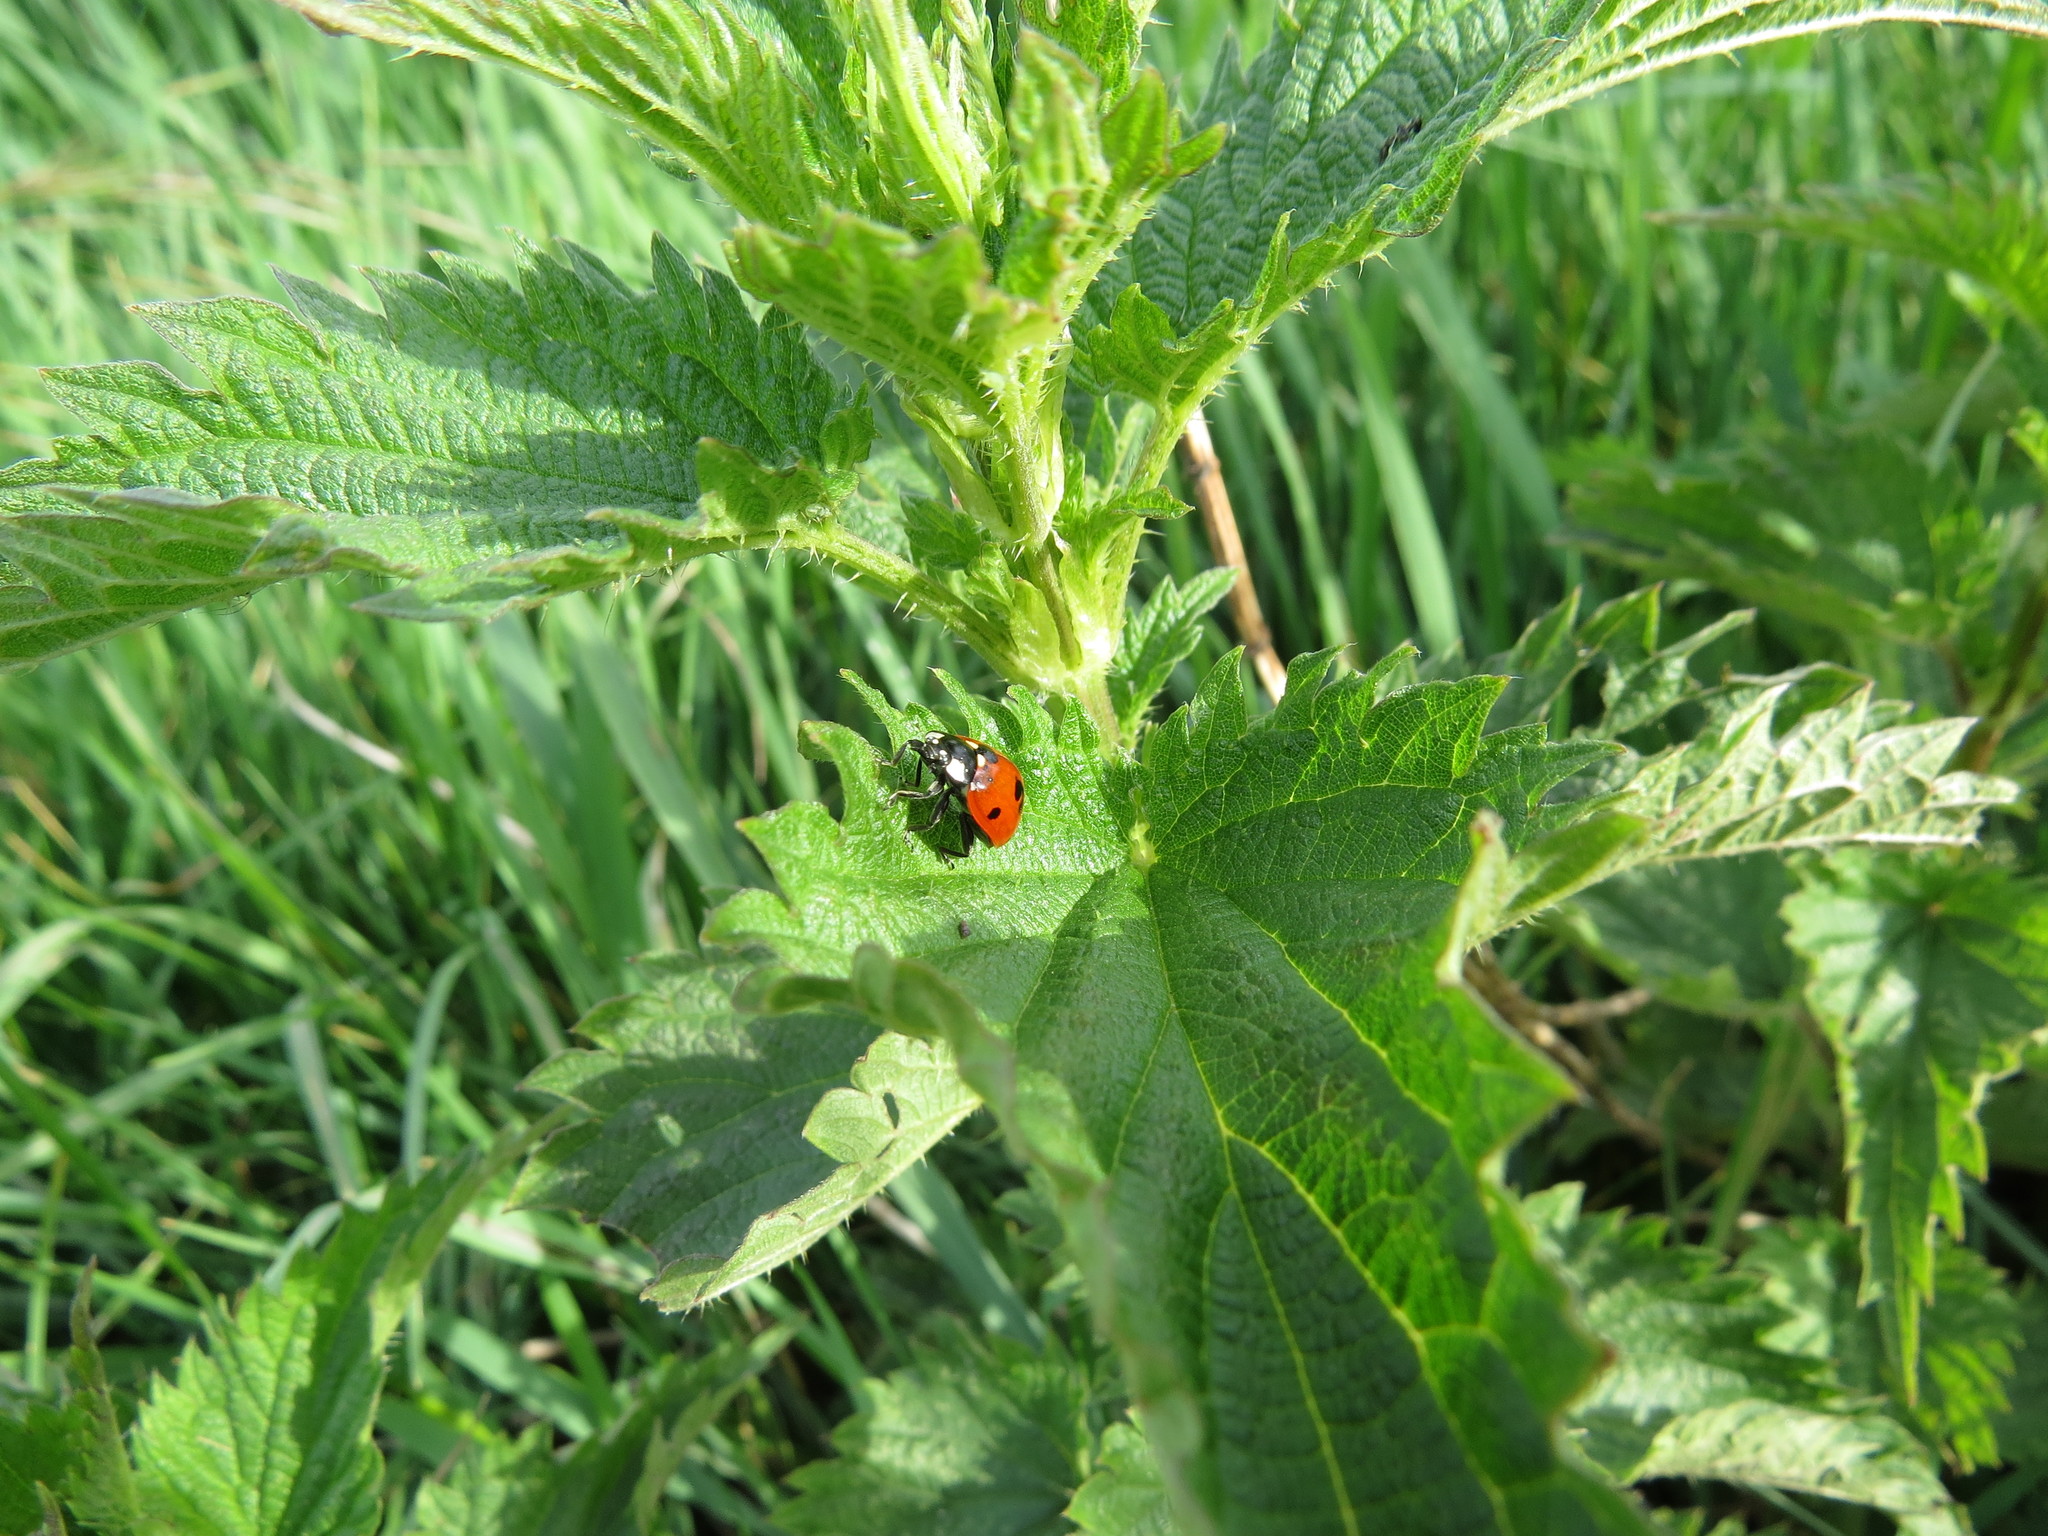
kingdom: Animalia
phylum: Arthropoda
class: Insecta
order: Coleoptera
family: Coccinellidae
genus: Coccinella
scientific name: Coccinella septempunctata
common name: Sevenspotted lady beetle
